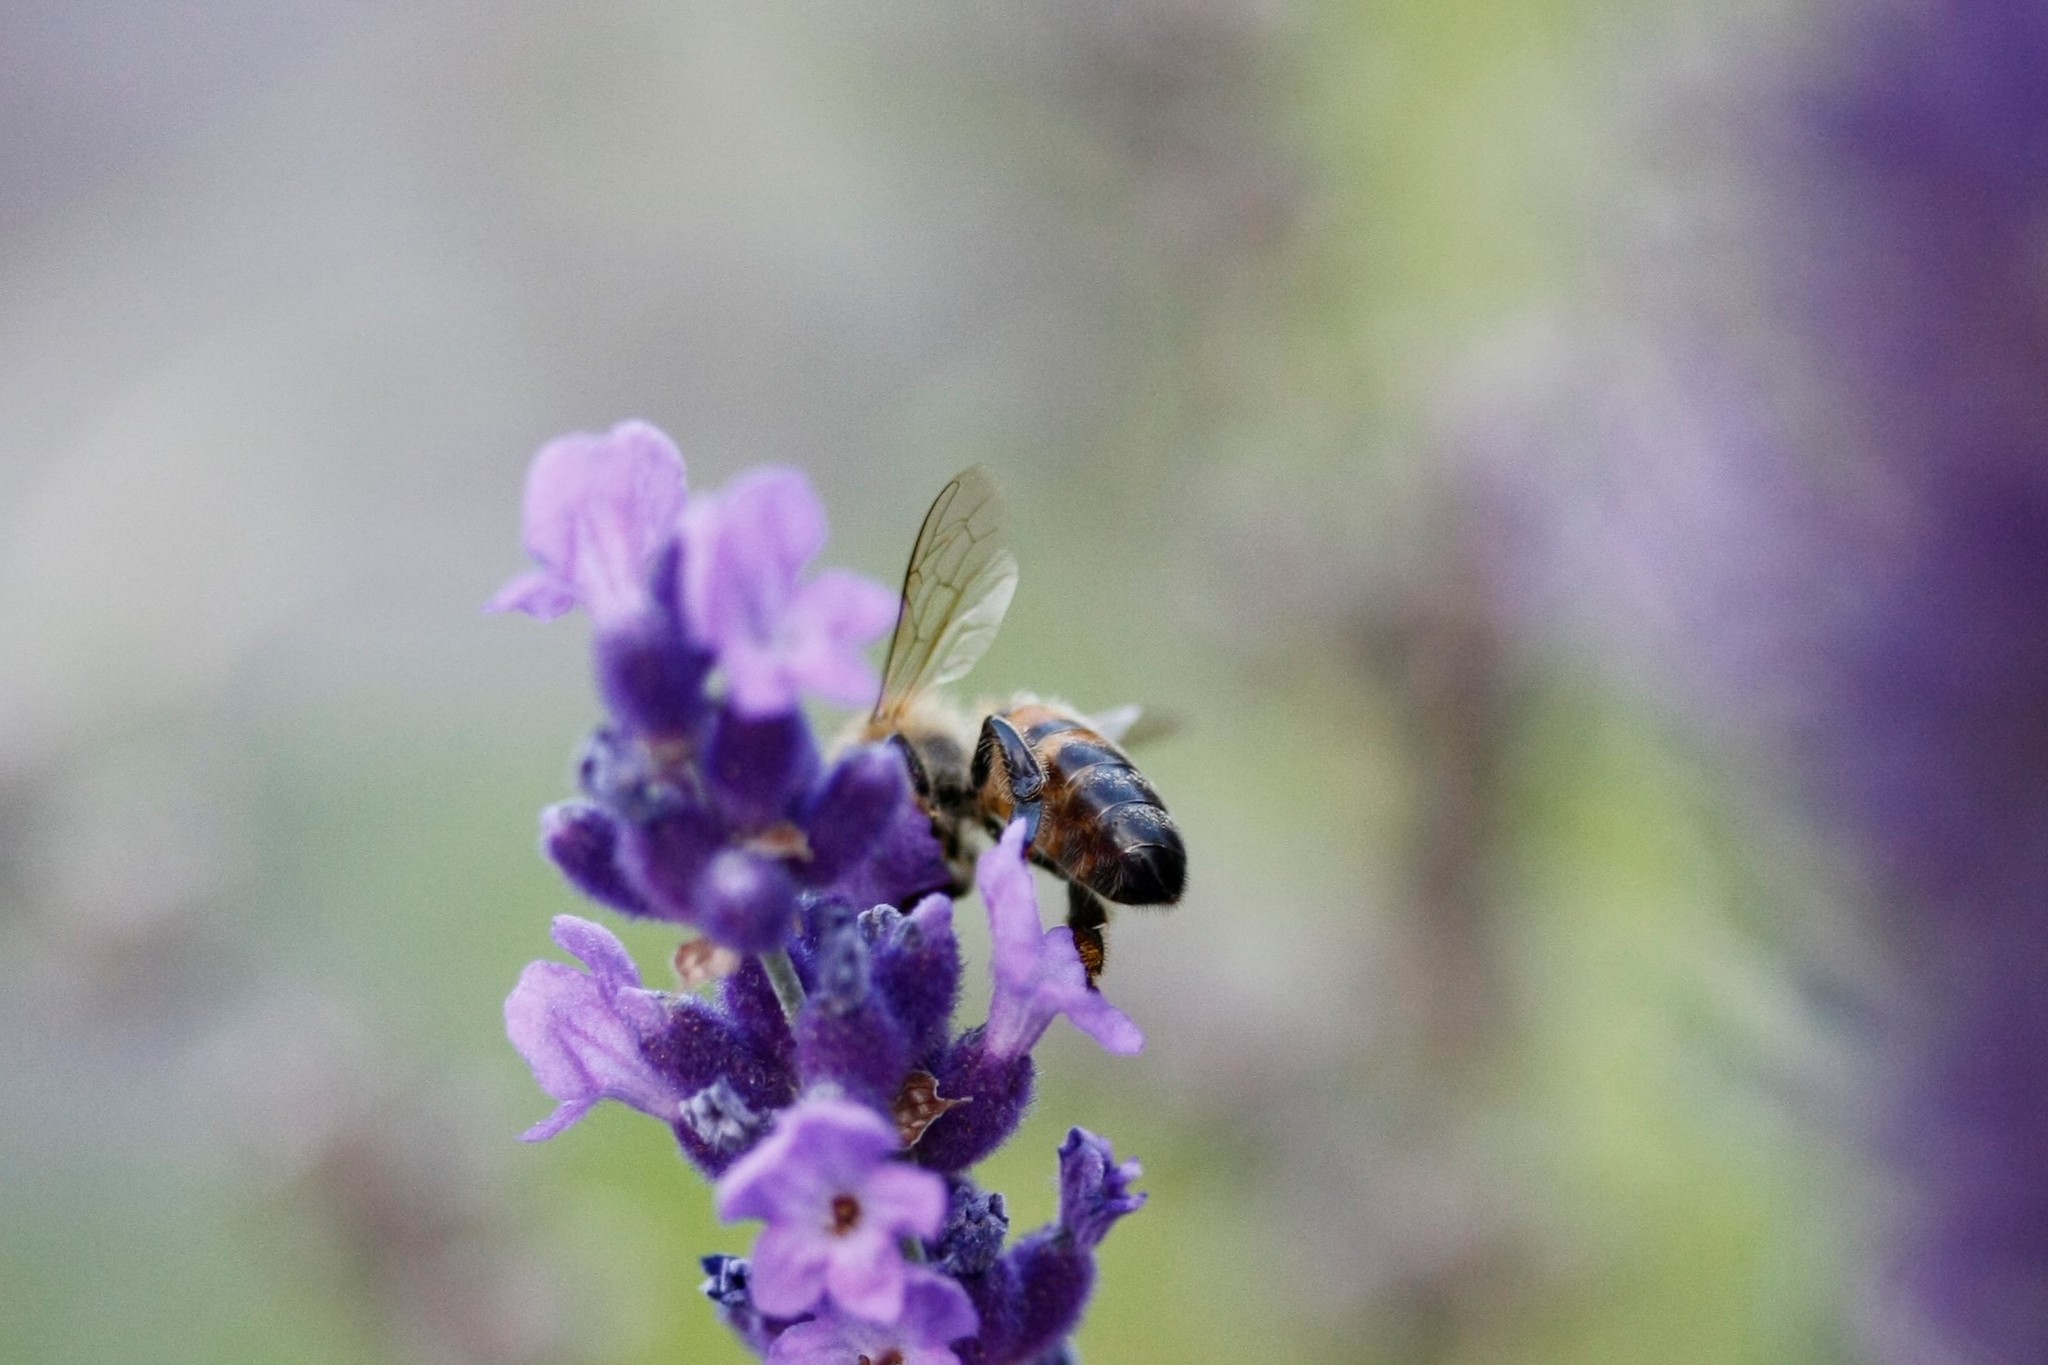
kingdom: Animalia
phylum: Arthropoda
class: Insecta
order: Hymenoptera
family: Apidae
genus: Apis
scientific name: Apis mellifera
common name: Honey bee
